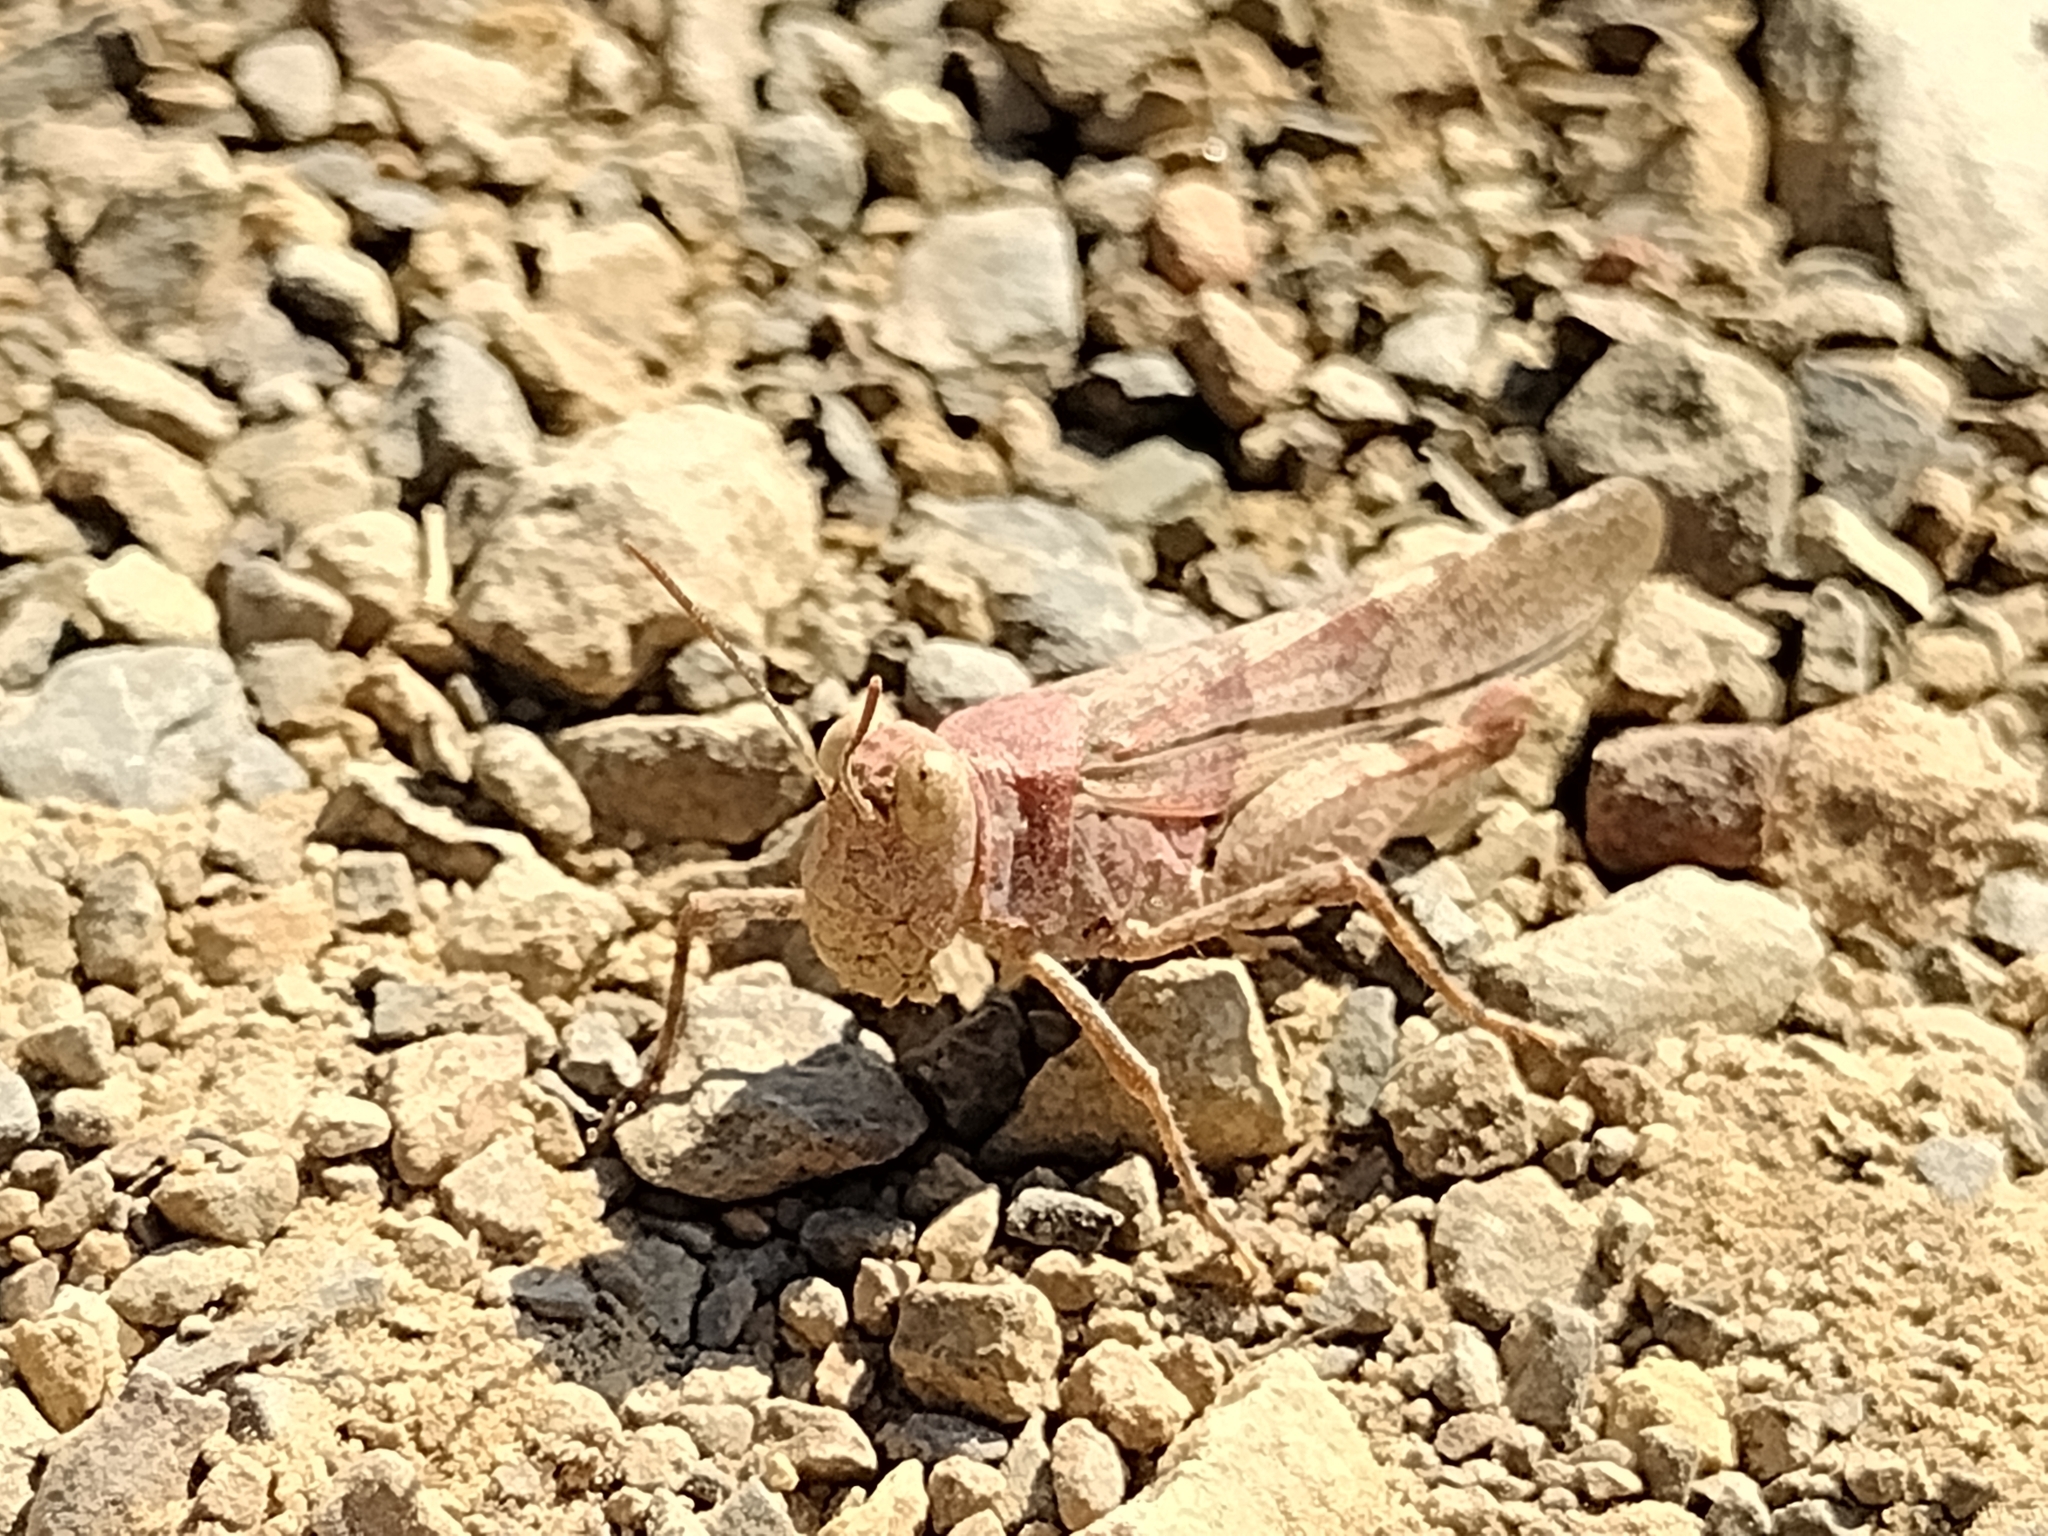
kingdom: Animalia
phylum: Arthropoda
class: Insecta
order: Orthoptera
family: Acrididae
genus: Trimerotropis
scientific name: Trimerotropis occidentalis
